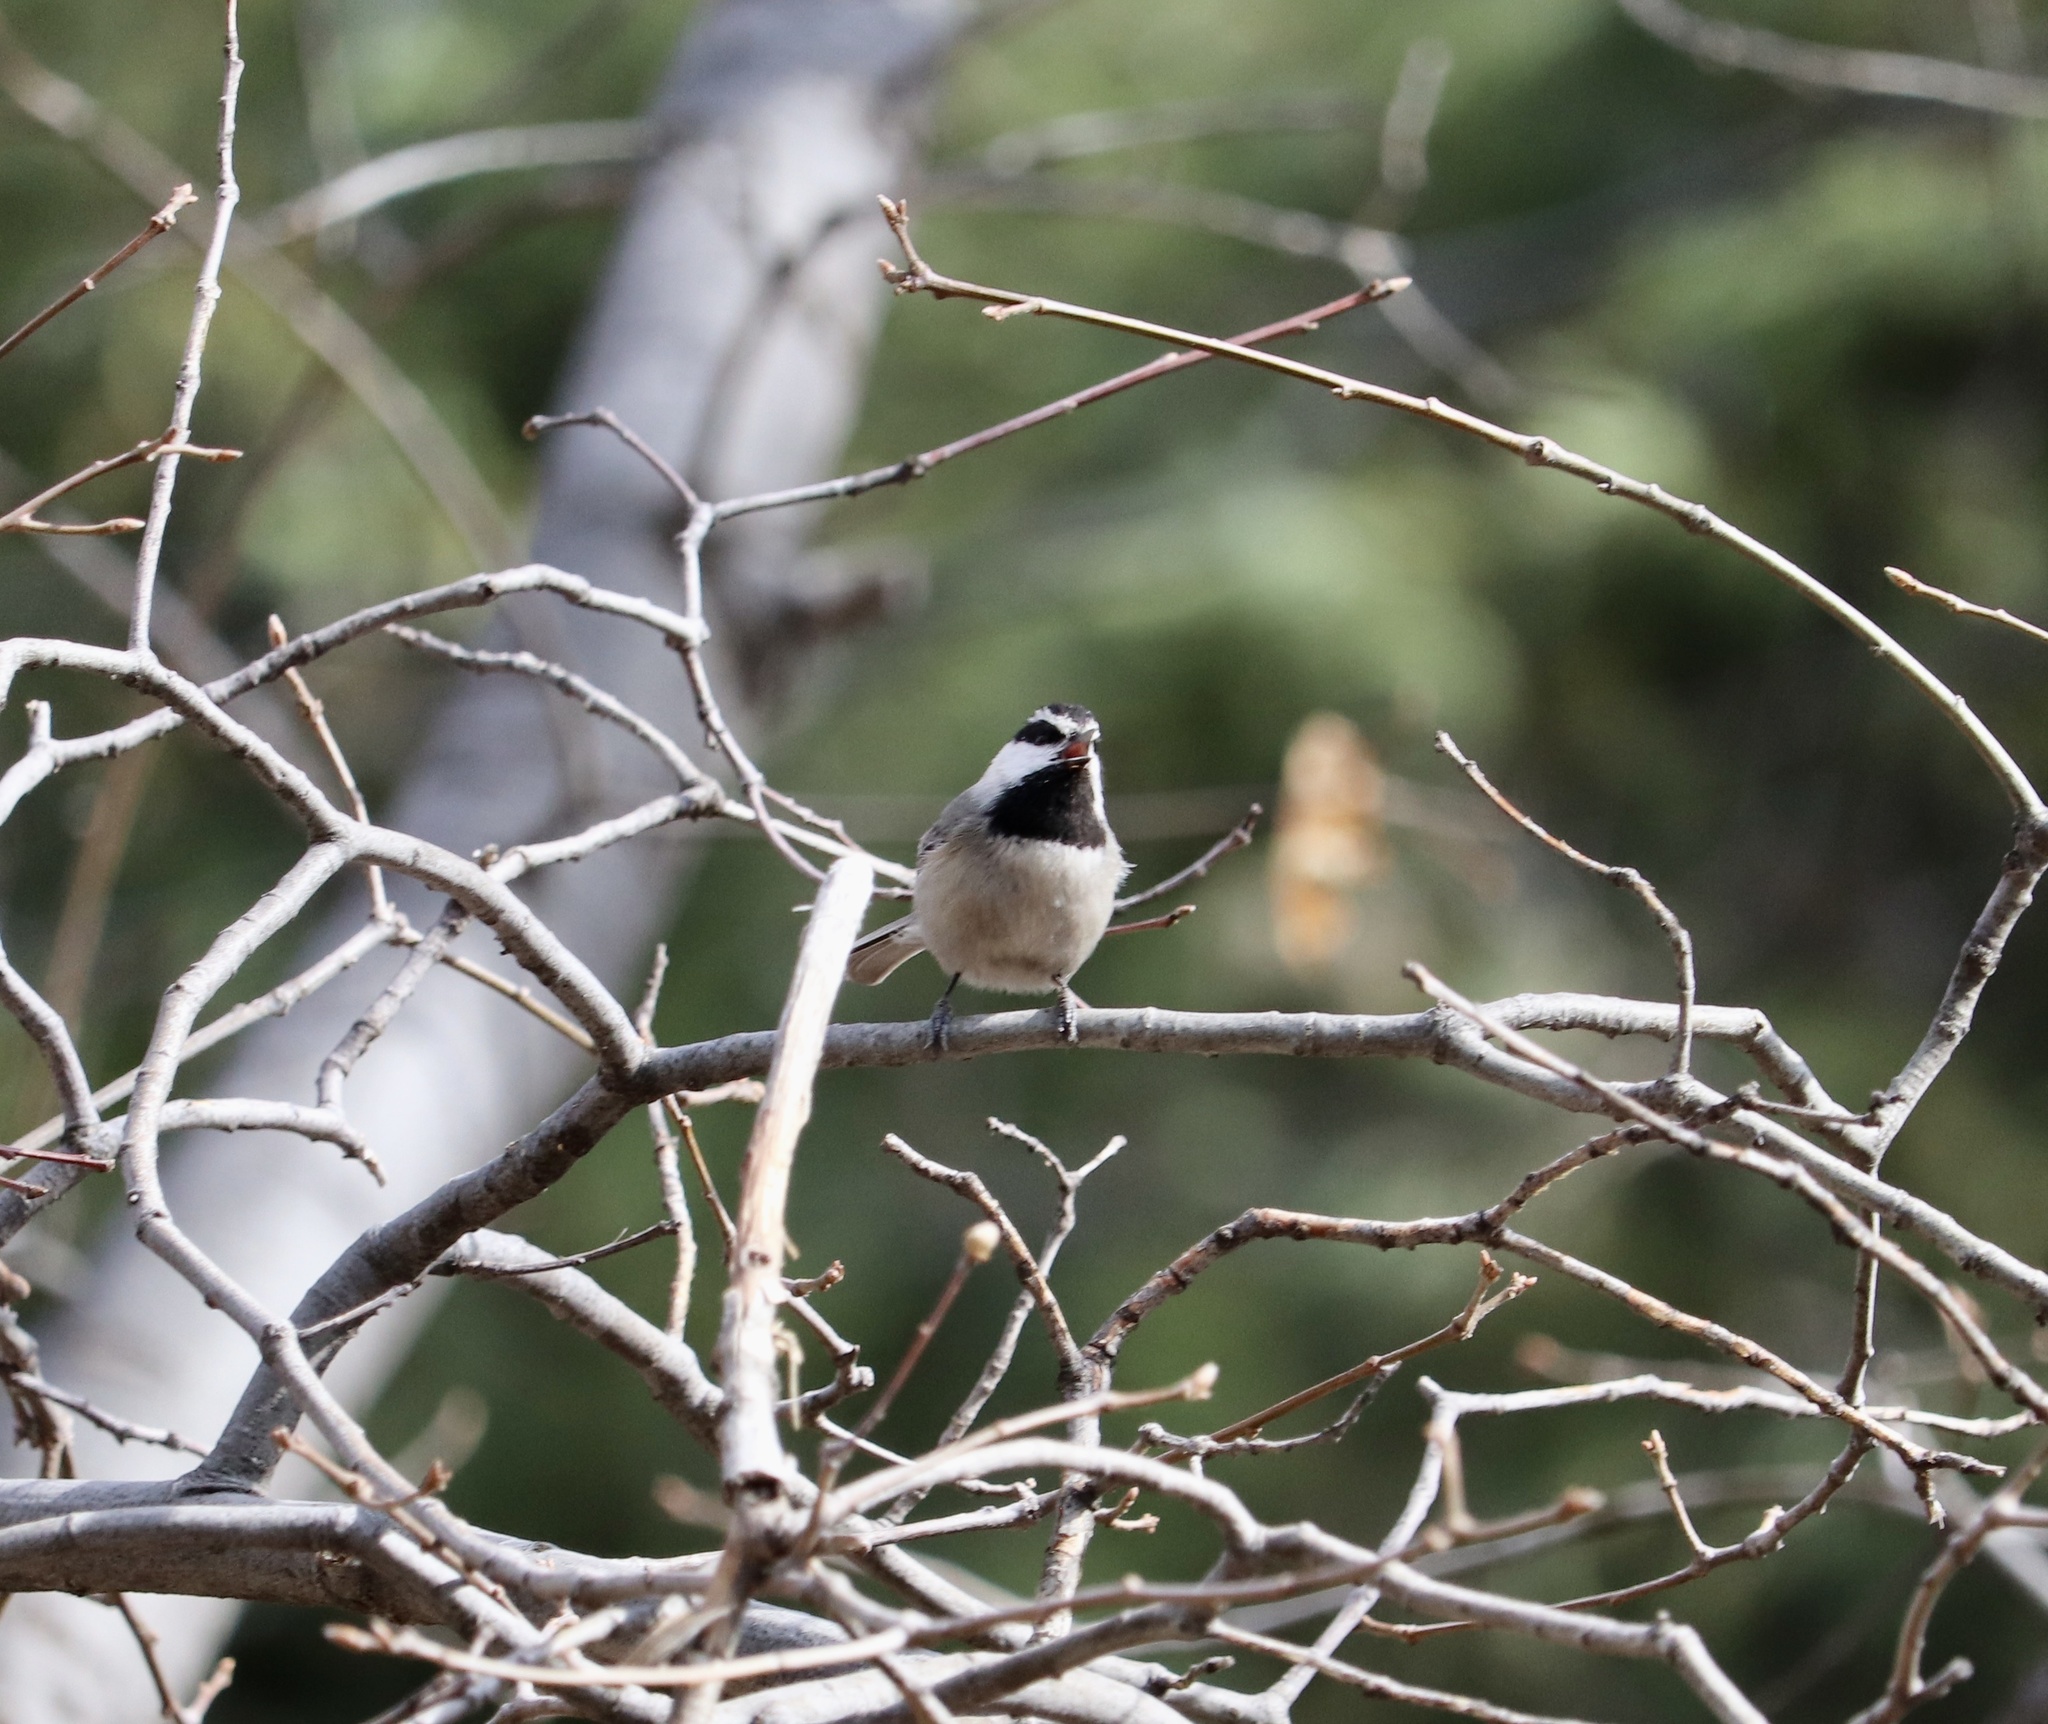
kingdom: Animalia
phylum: Chordata
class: Aves
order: Passeriformes
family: Paridae
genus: Poecile
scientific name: Poecile gambeli
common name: Mountain chickadee
